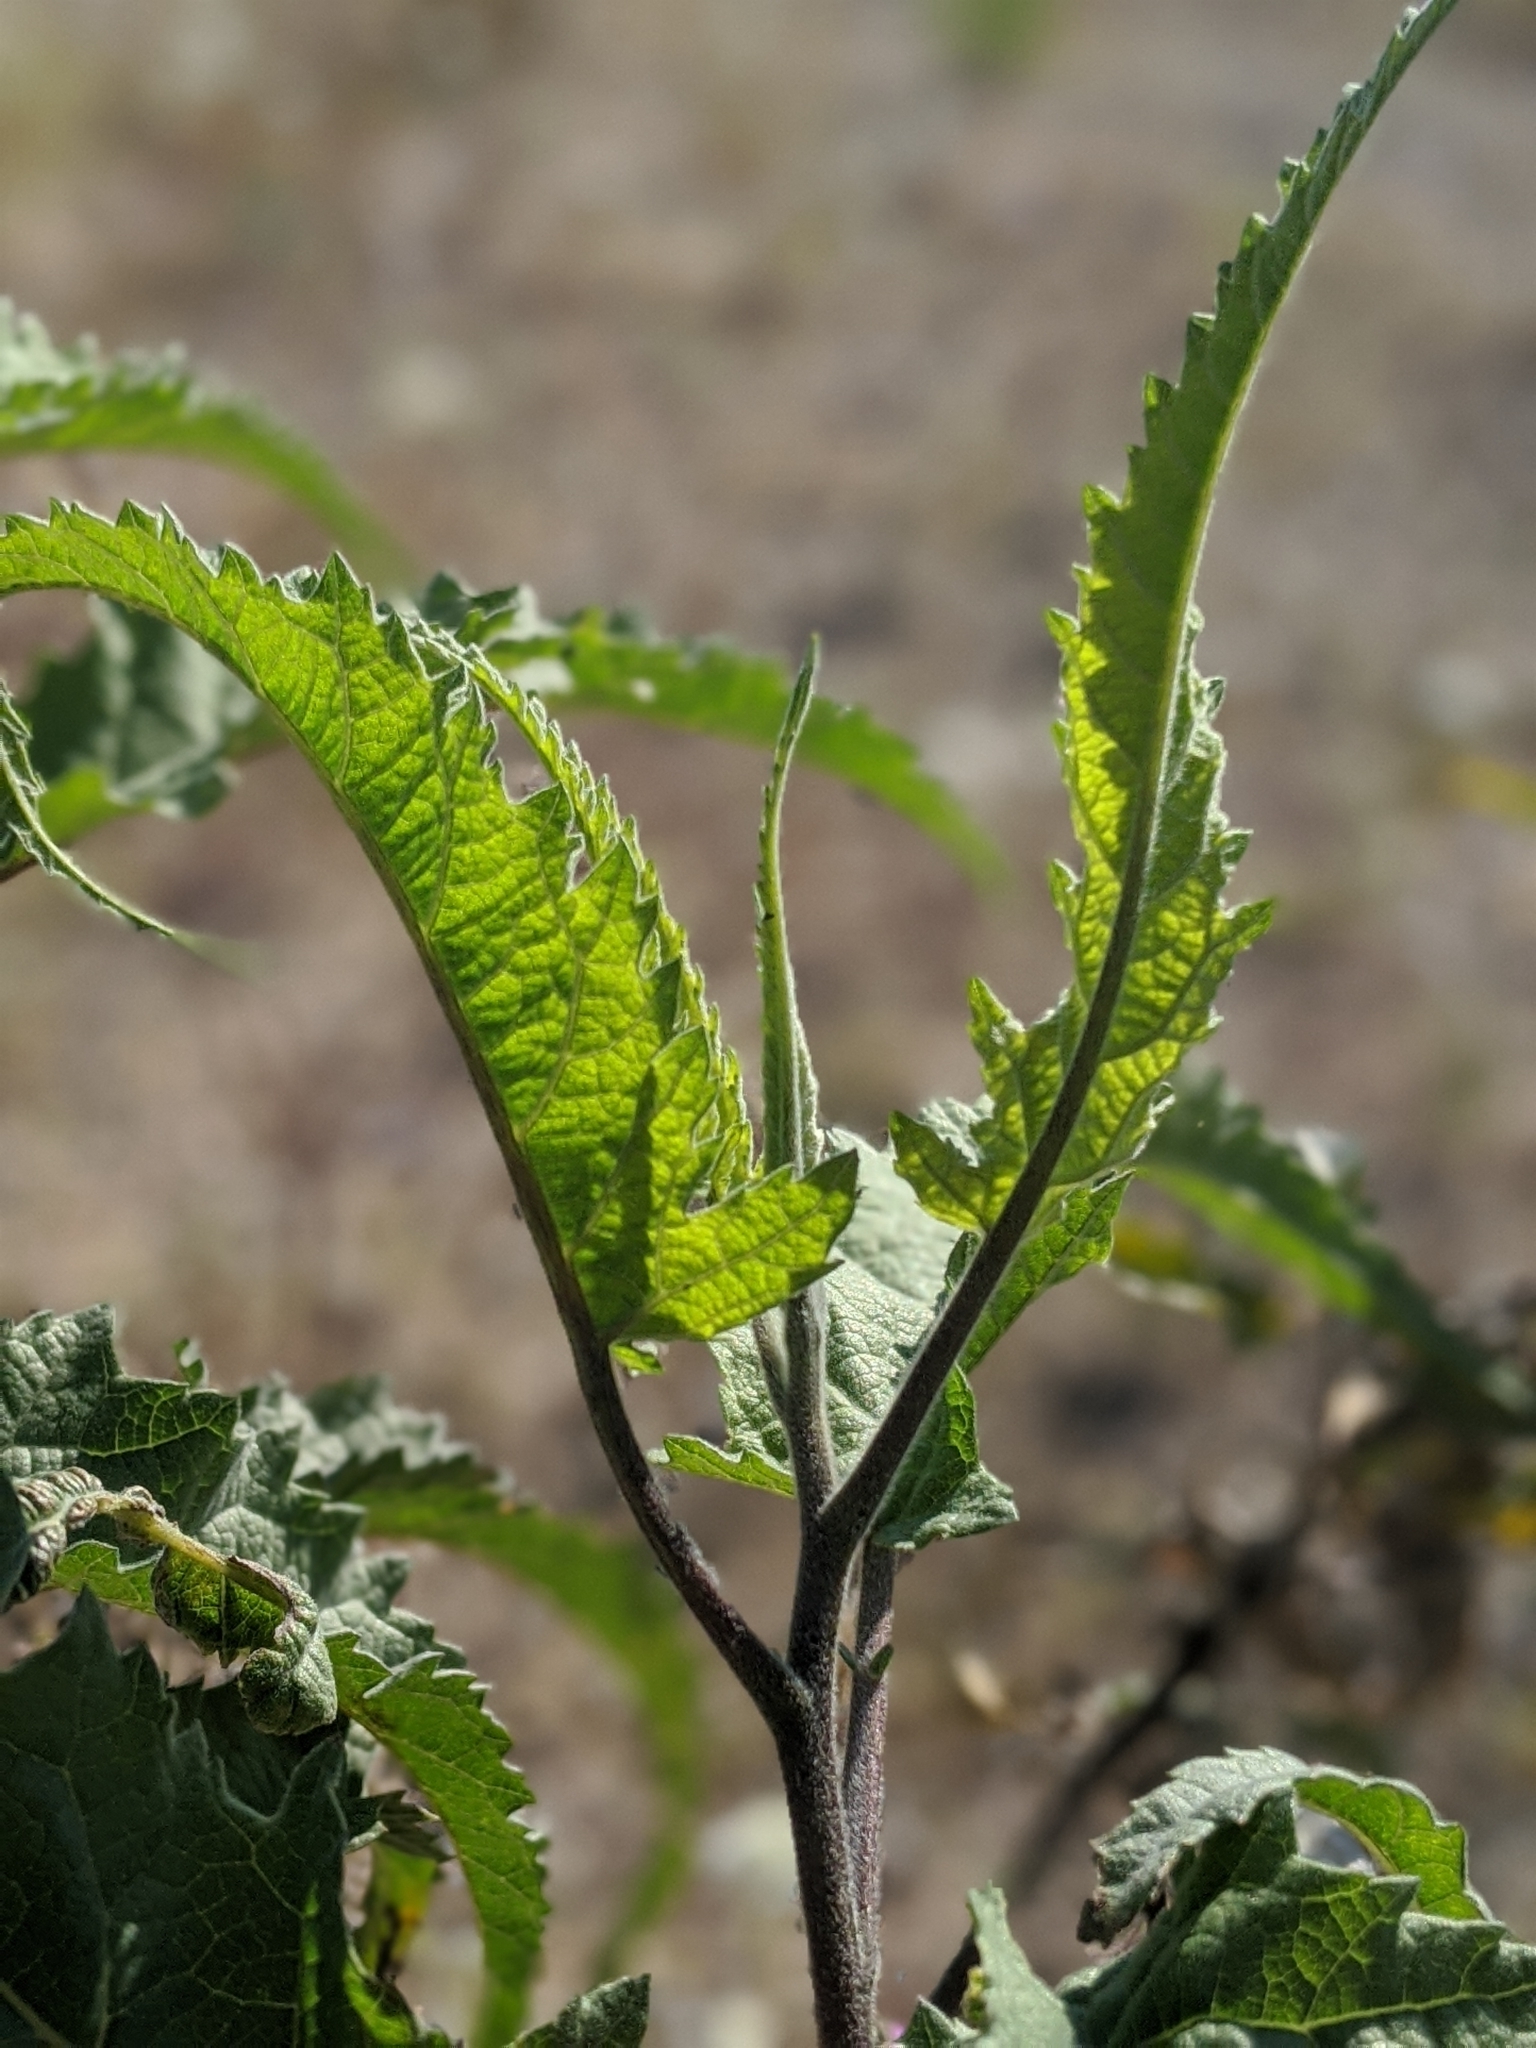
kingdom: Plantae
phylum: Tracheophyta
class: Magnoliopsida
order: Asterales
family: Asteraceae
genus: Ambrosia
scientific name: Ambrosia ambrosioides
